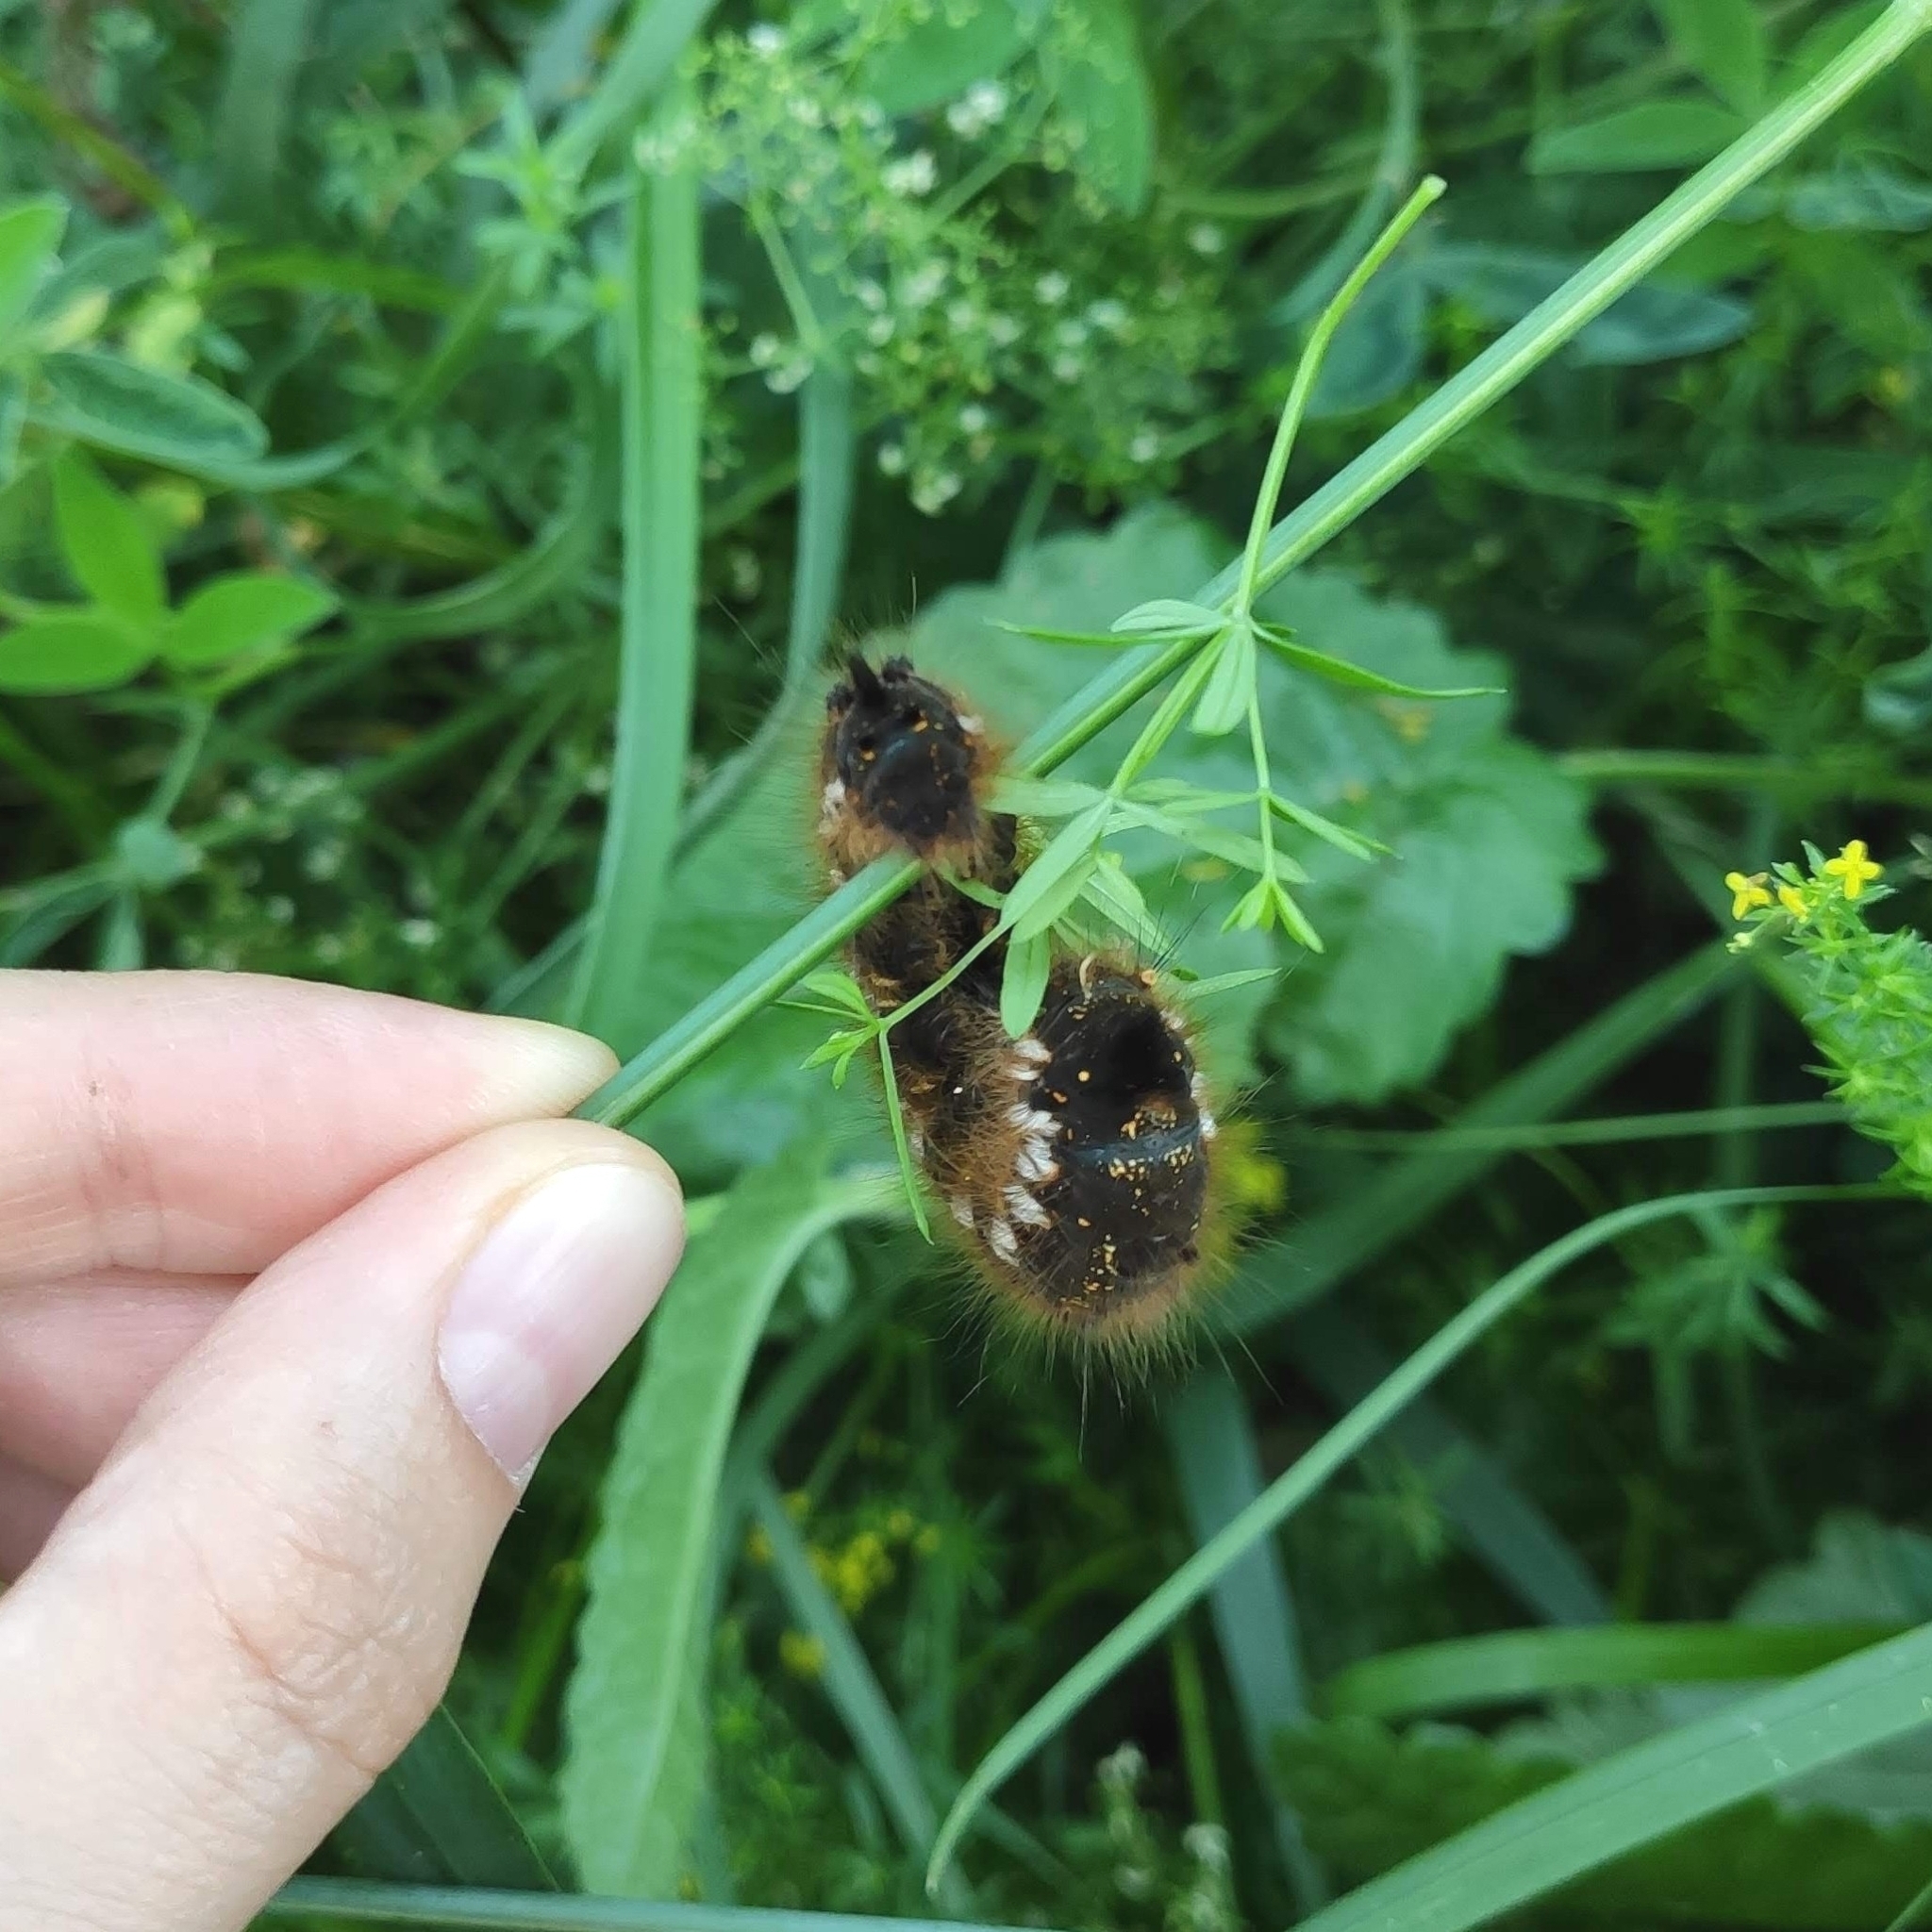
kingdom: Animalia
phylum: Arthropoda
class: Insecta
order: Lepidoptera
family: Lasiocampidae
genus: Euthrix
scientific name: Euthrix potatoria
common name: Drinker
